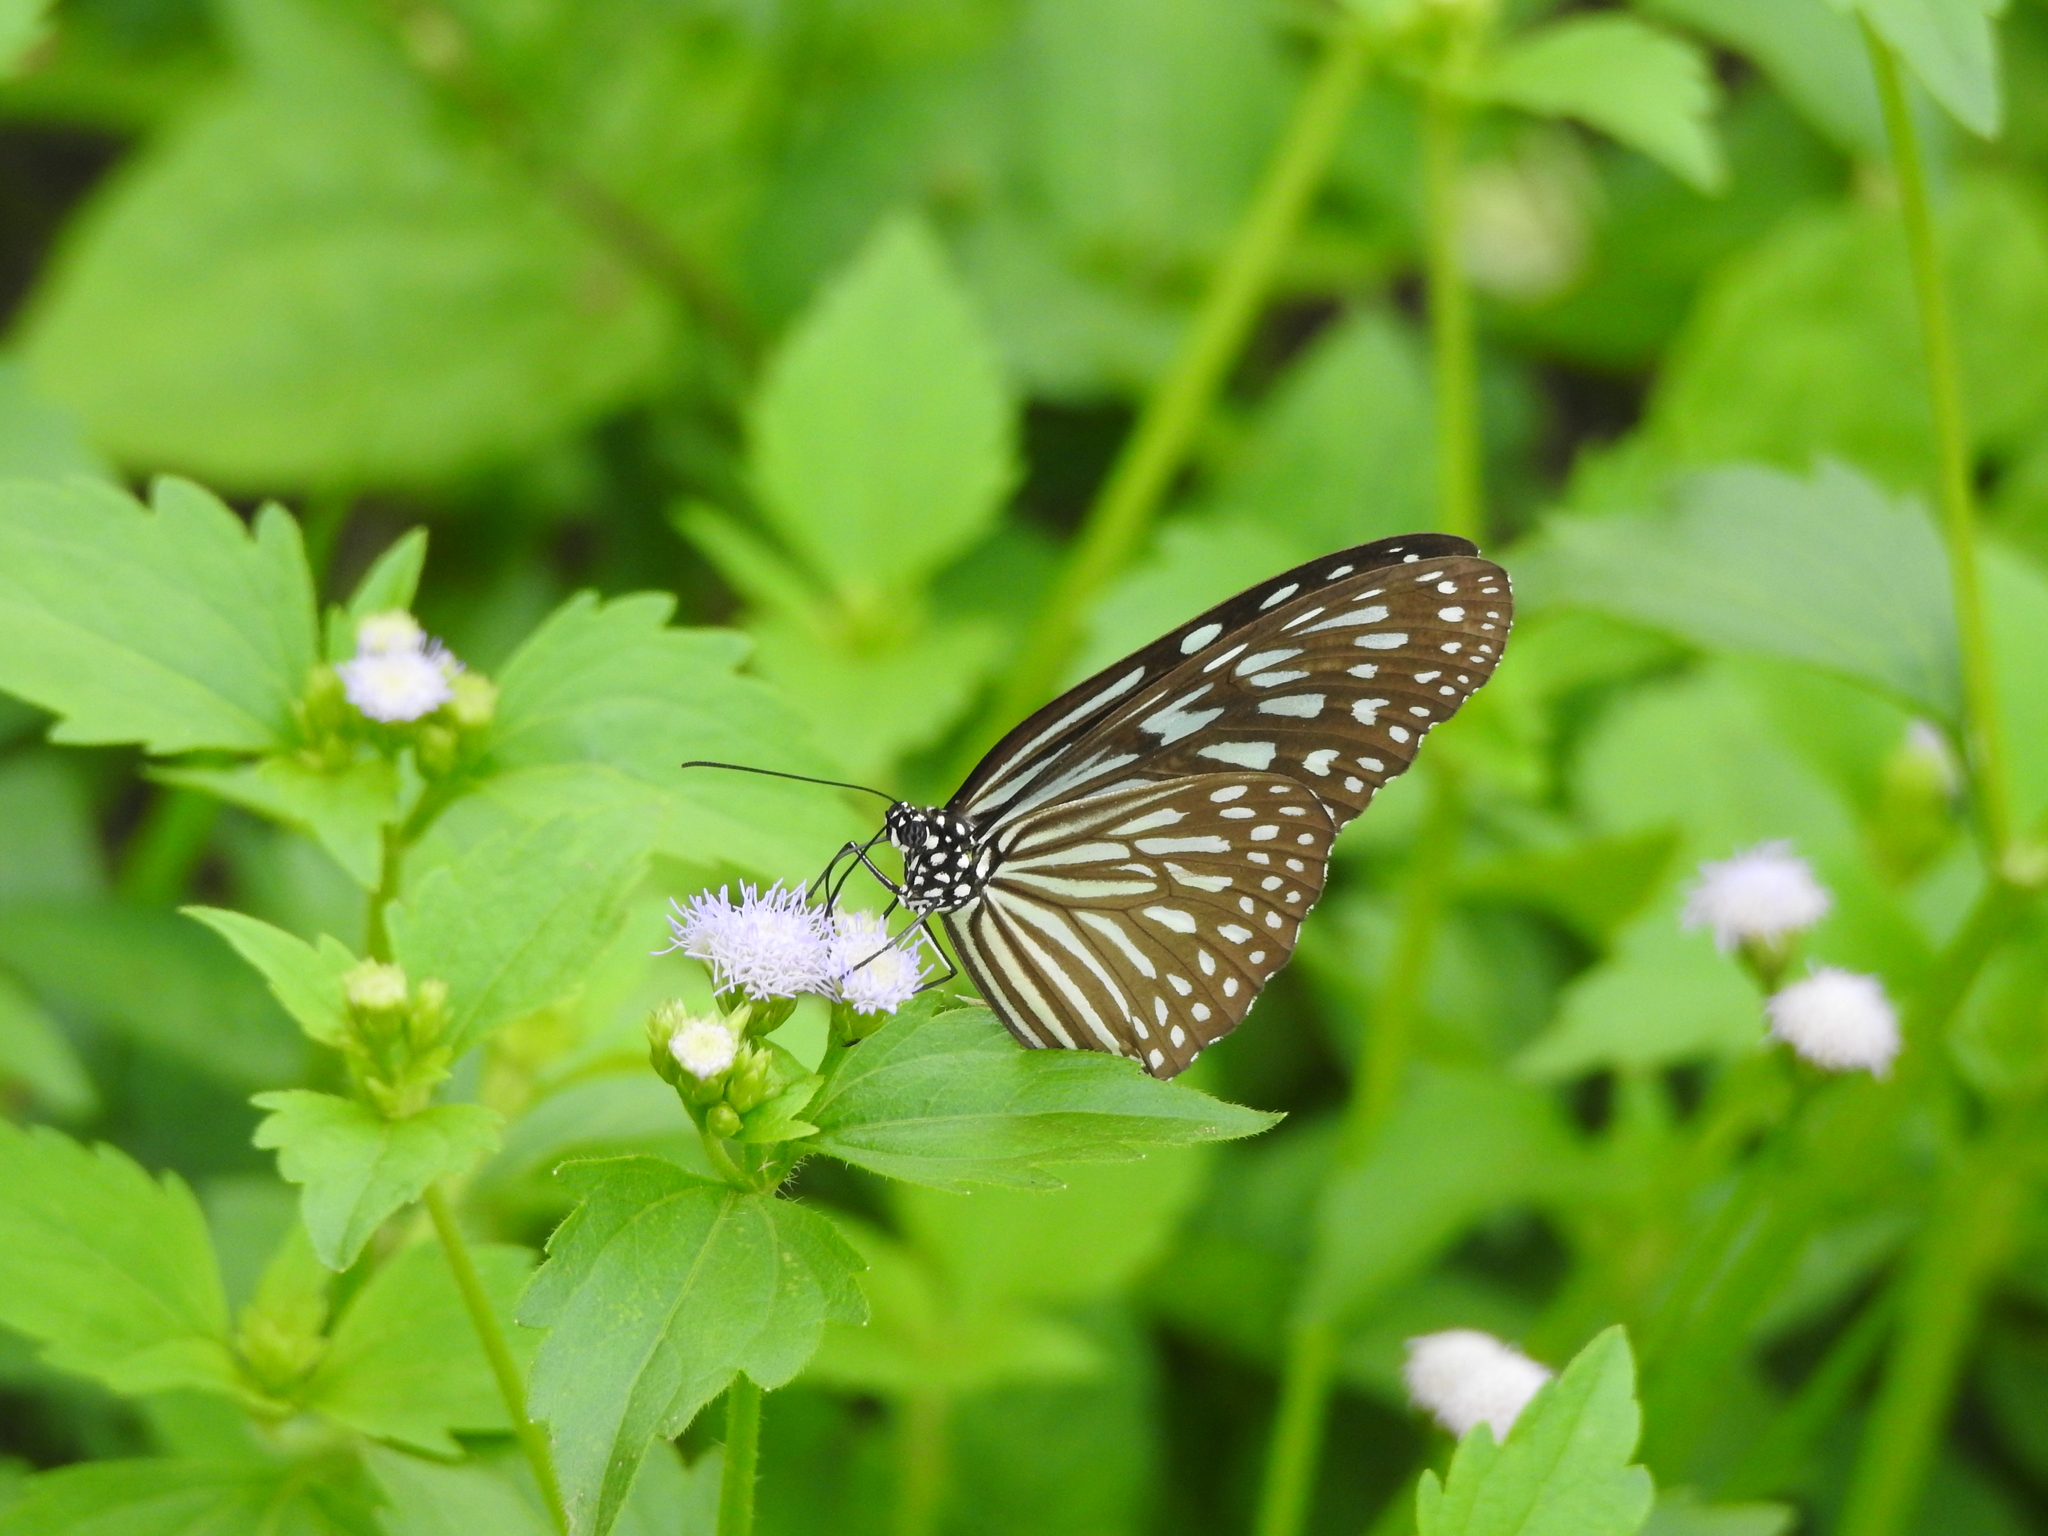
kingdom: Animalia
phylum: Arthropoda
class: Insecta
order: Lepidoptera
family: Nymphalidae
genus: Ideopsis
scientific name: Ideopsis vulgaris
